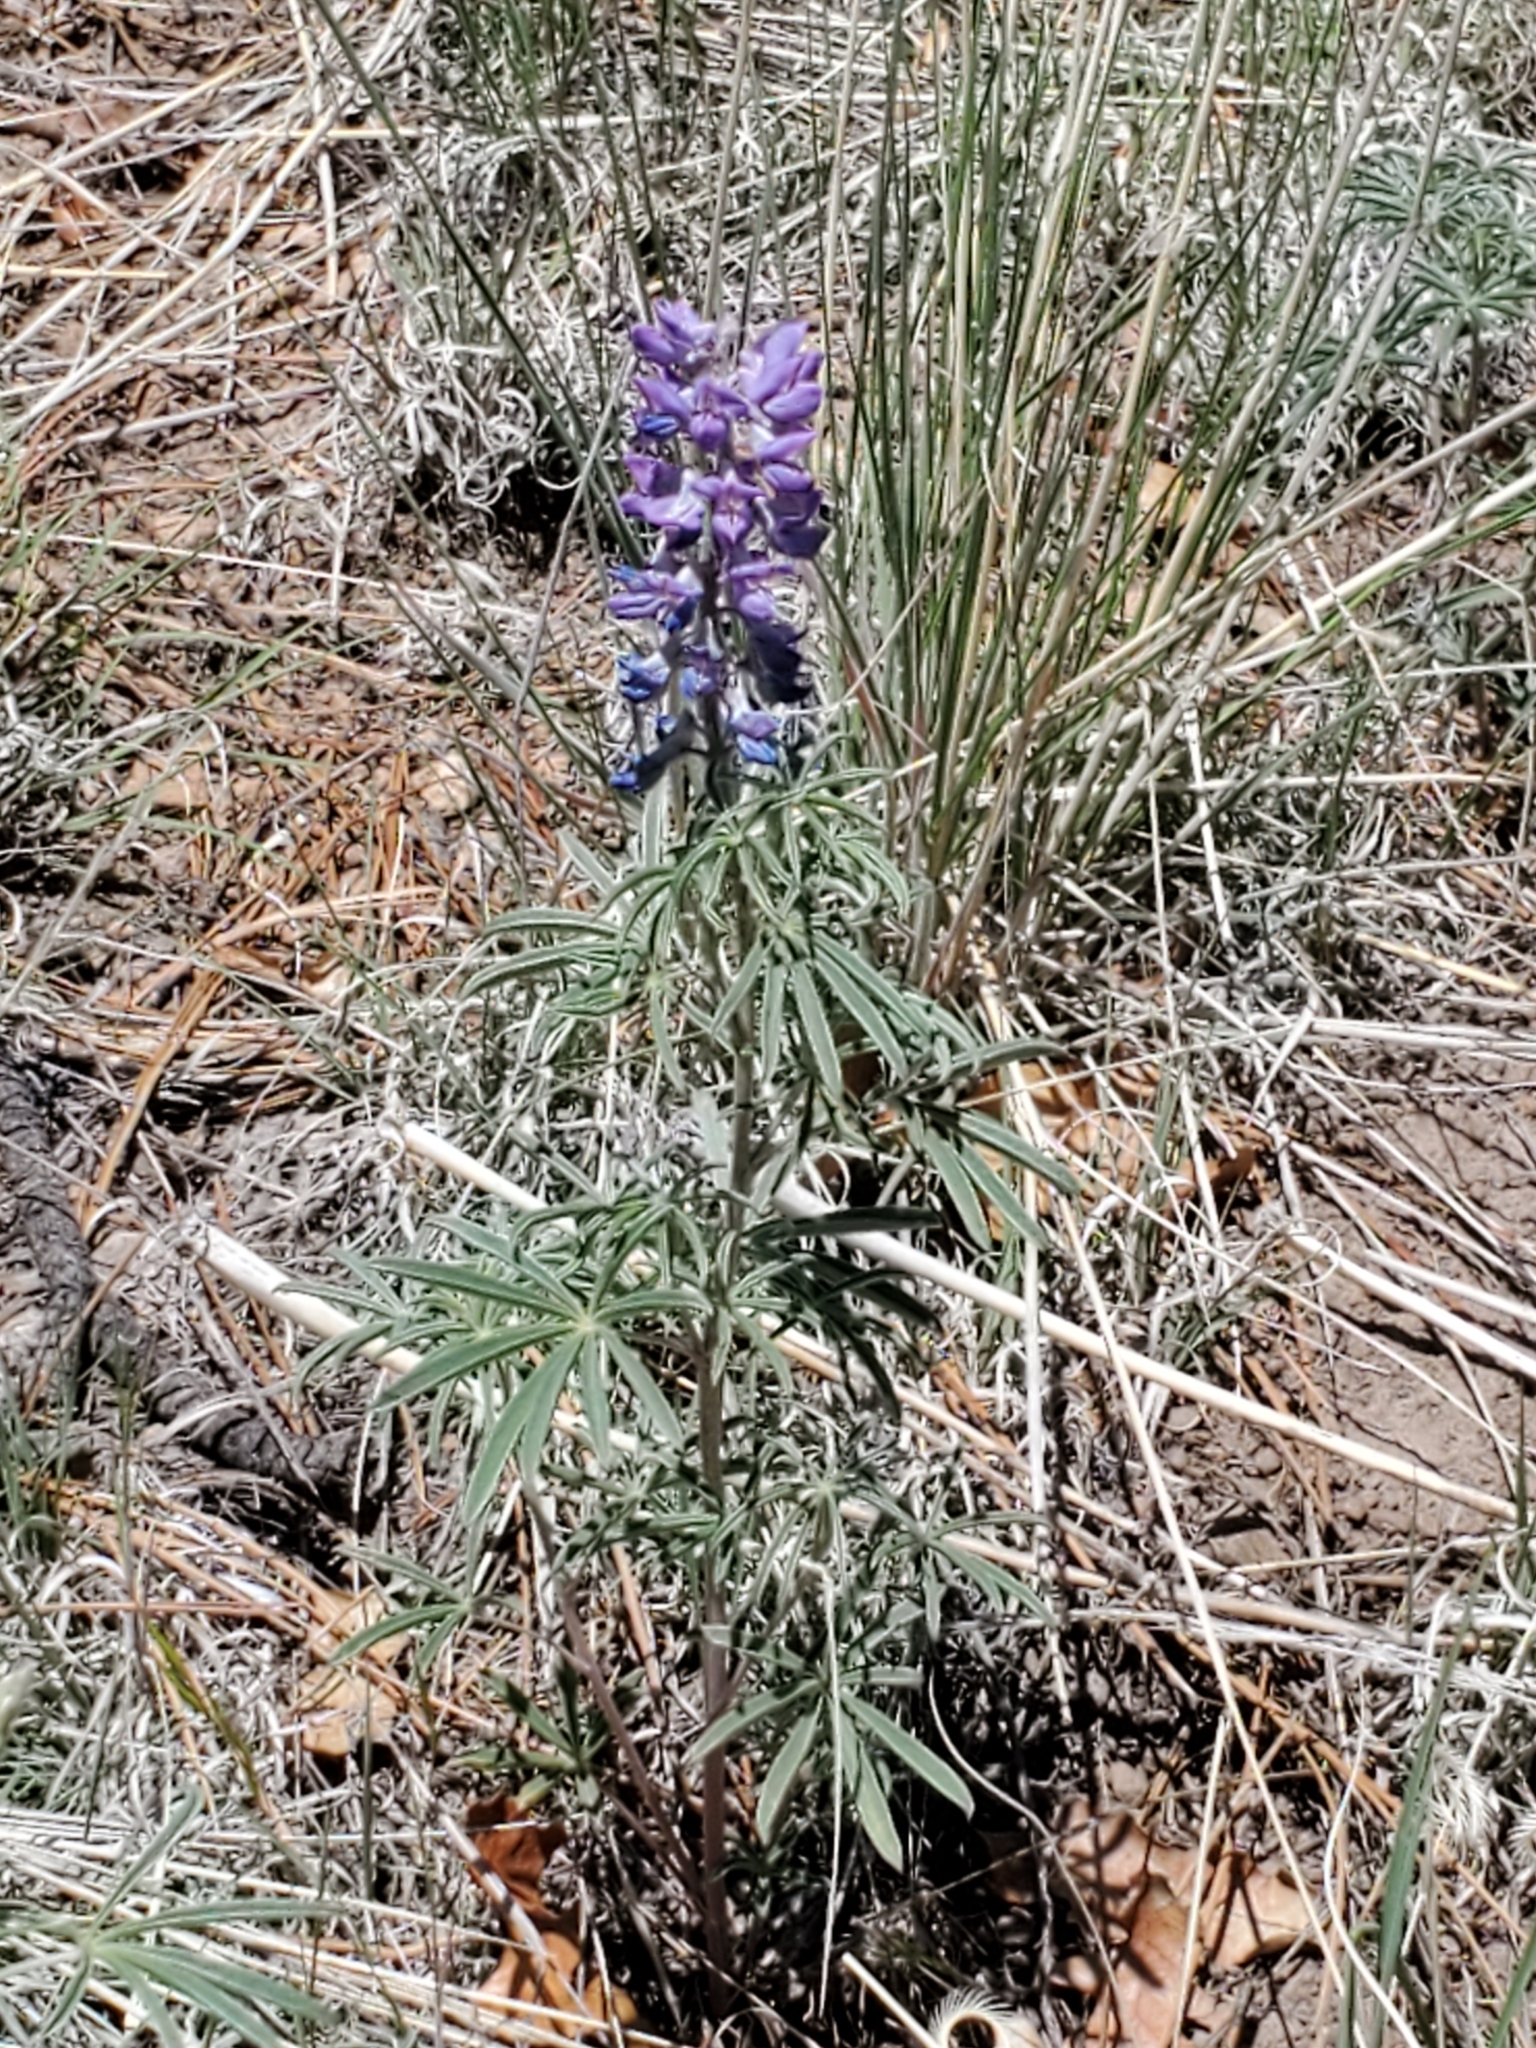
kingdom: Plantae
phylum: Tracheophyta
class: Magnoliopsida
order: Fabales
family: Fabaceae
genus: Lupinus
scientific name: Lupinus caudatus
